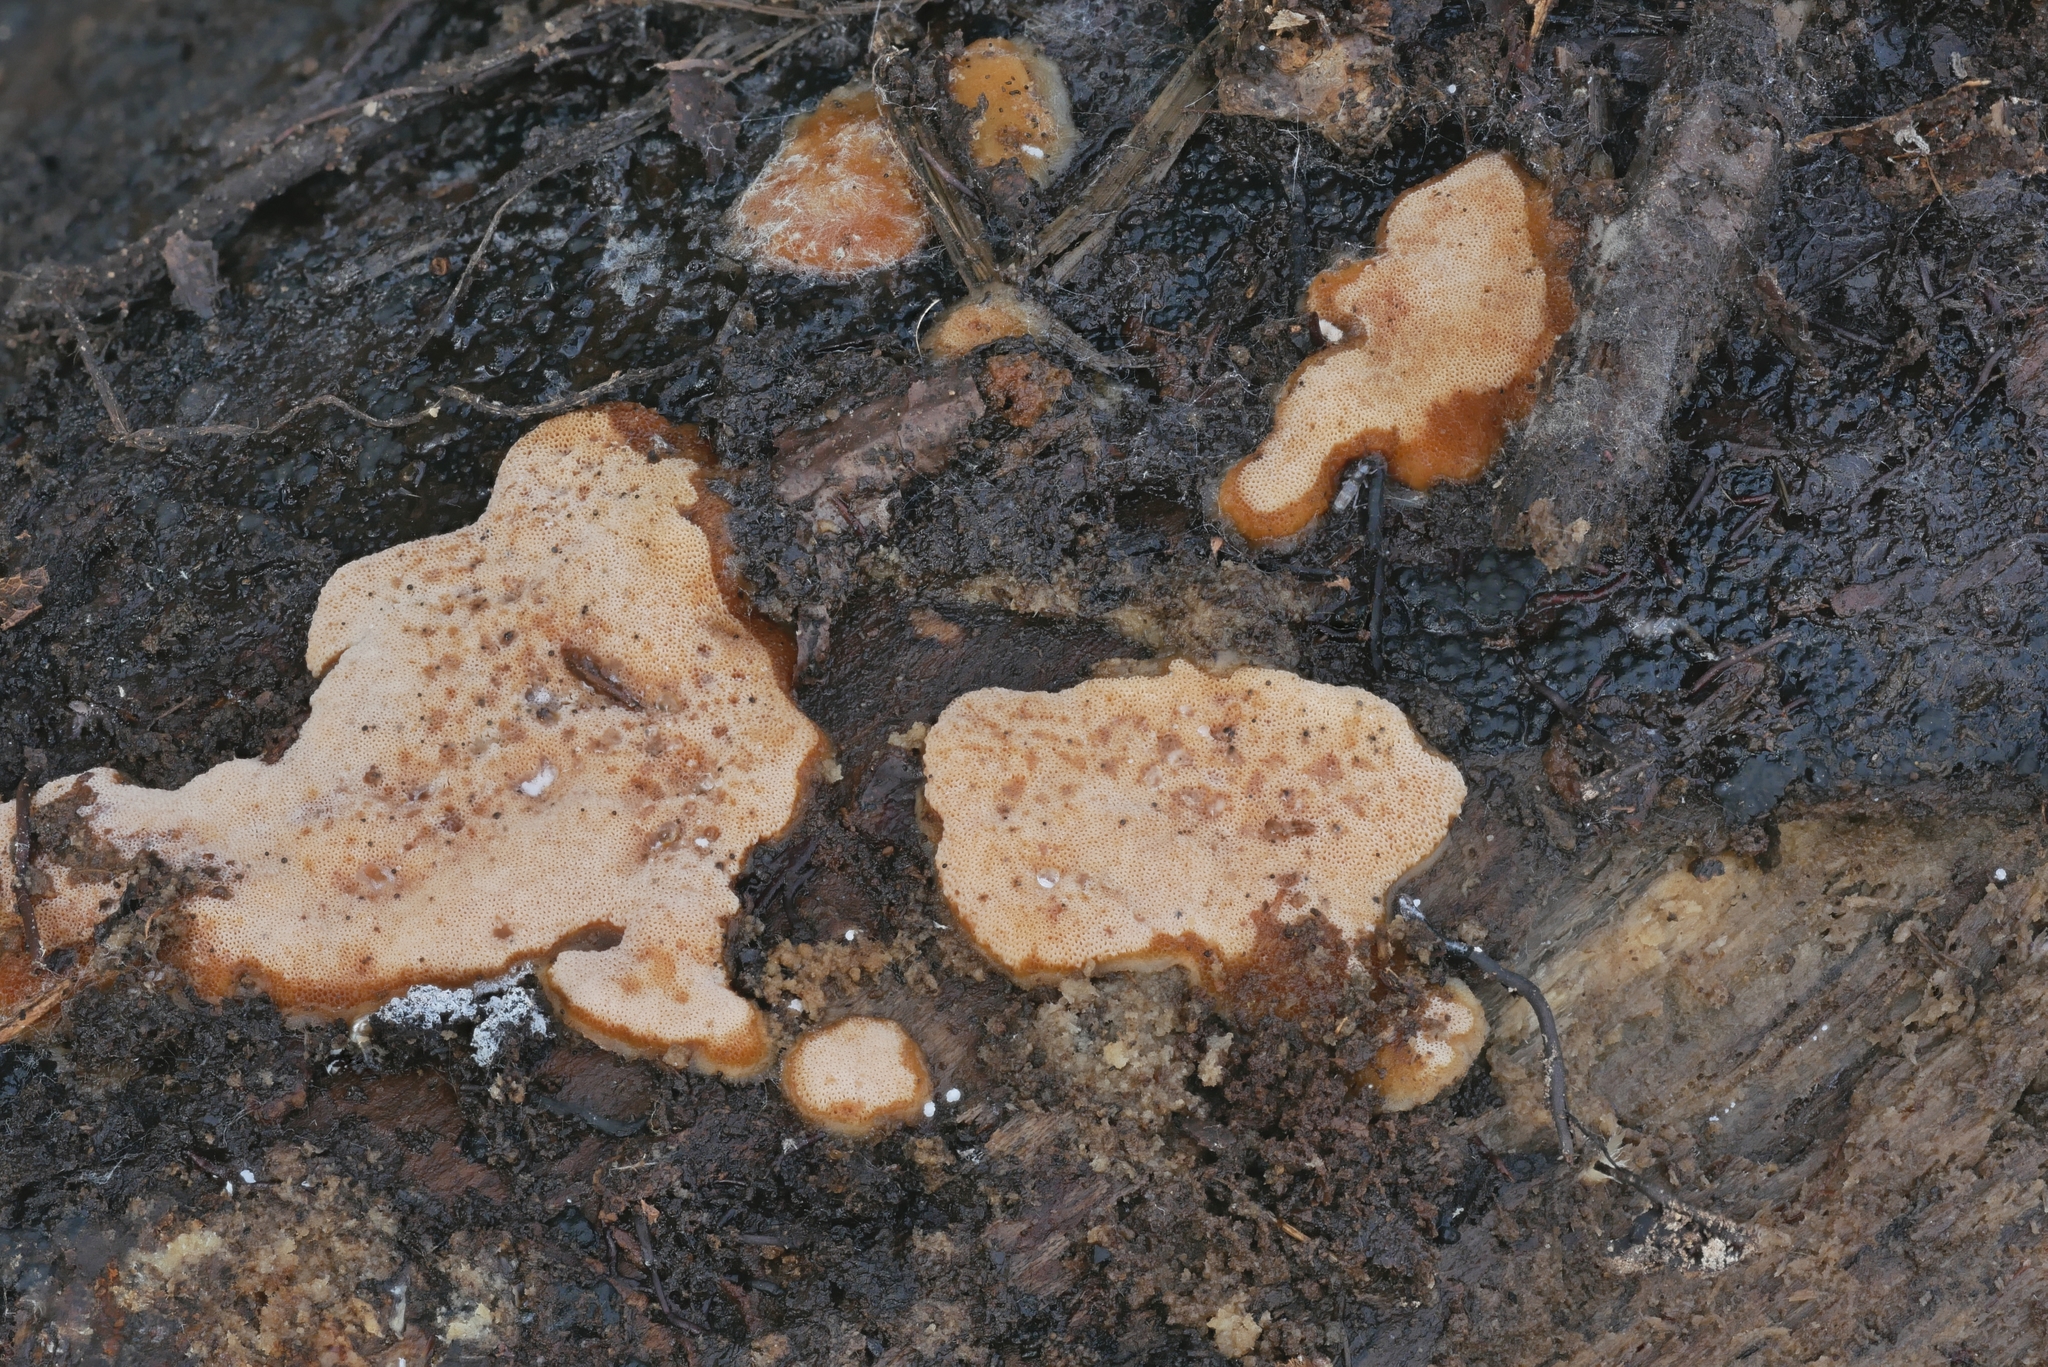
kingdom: Fungi
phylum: Basidiomycota
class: Agaricomycetes
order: Polyporales
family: Meripilaceae
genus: Rigidoporus
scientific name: Rigidoporus crocatus
